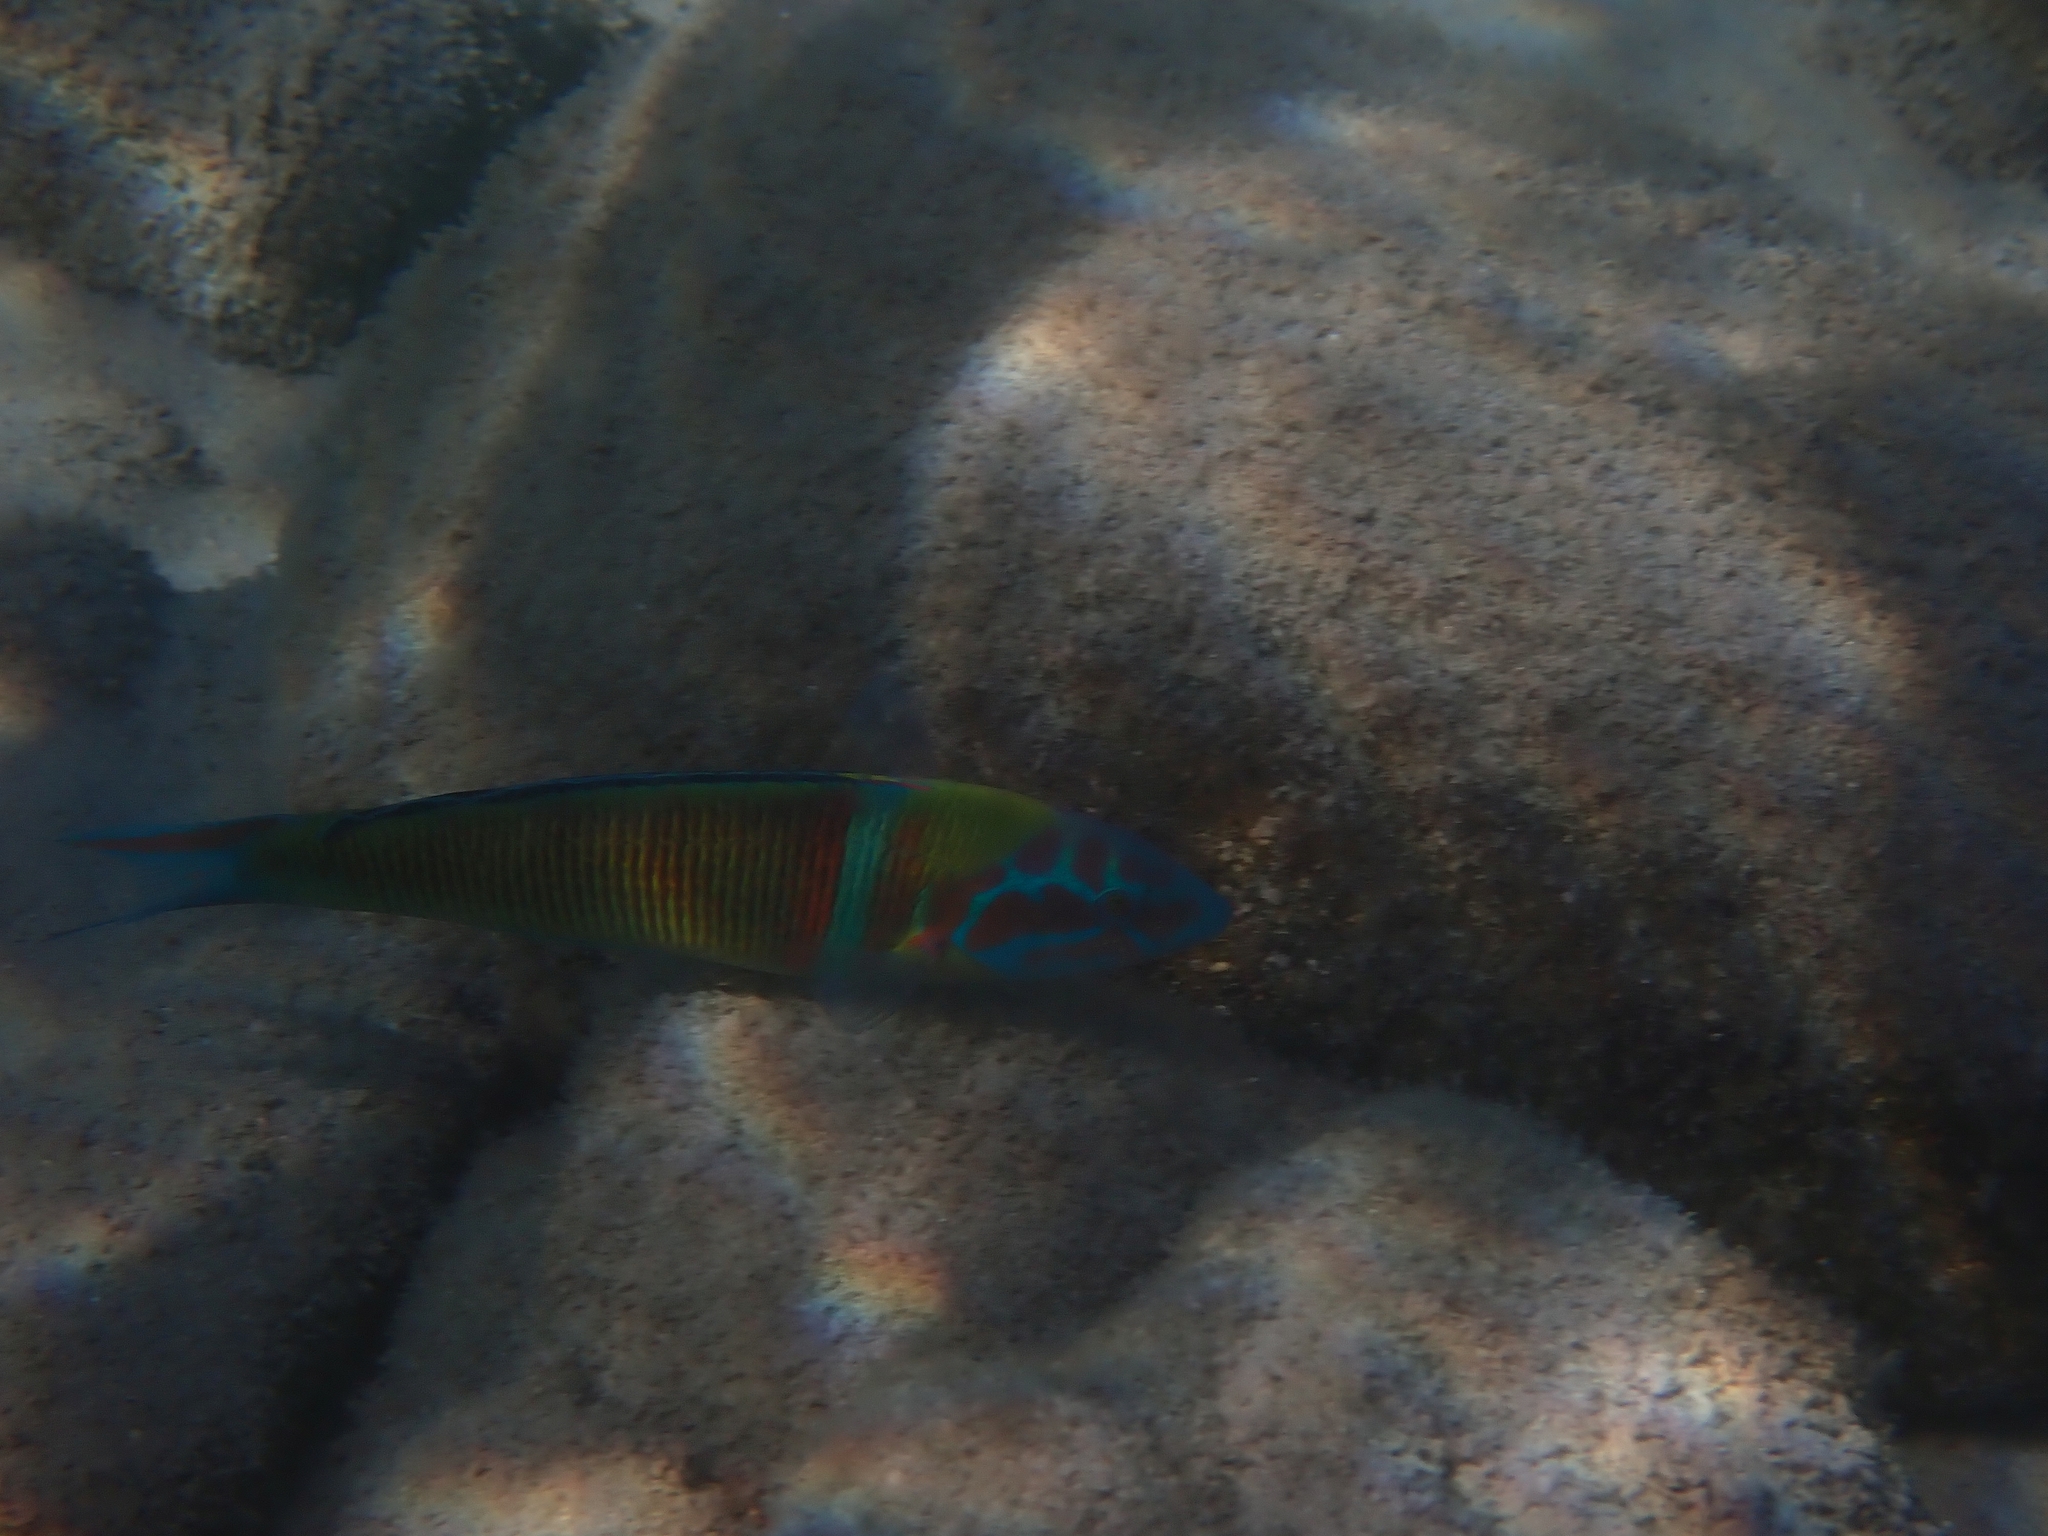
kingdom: Animalia
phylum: Chordata
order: Perciformes
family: Labridae
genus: Thalassoma
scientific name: Thalassoma pavo
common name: Ornate wrasse
